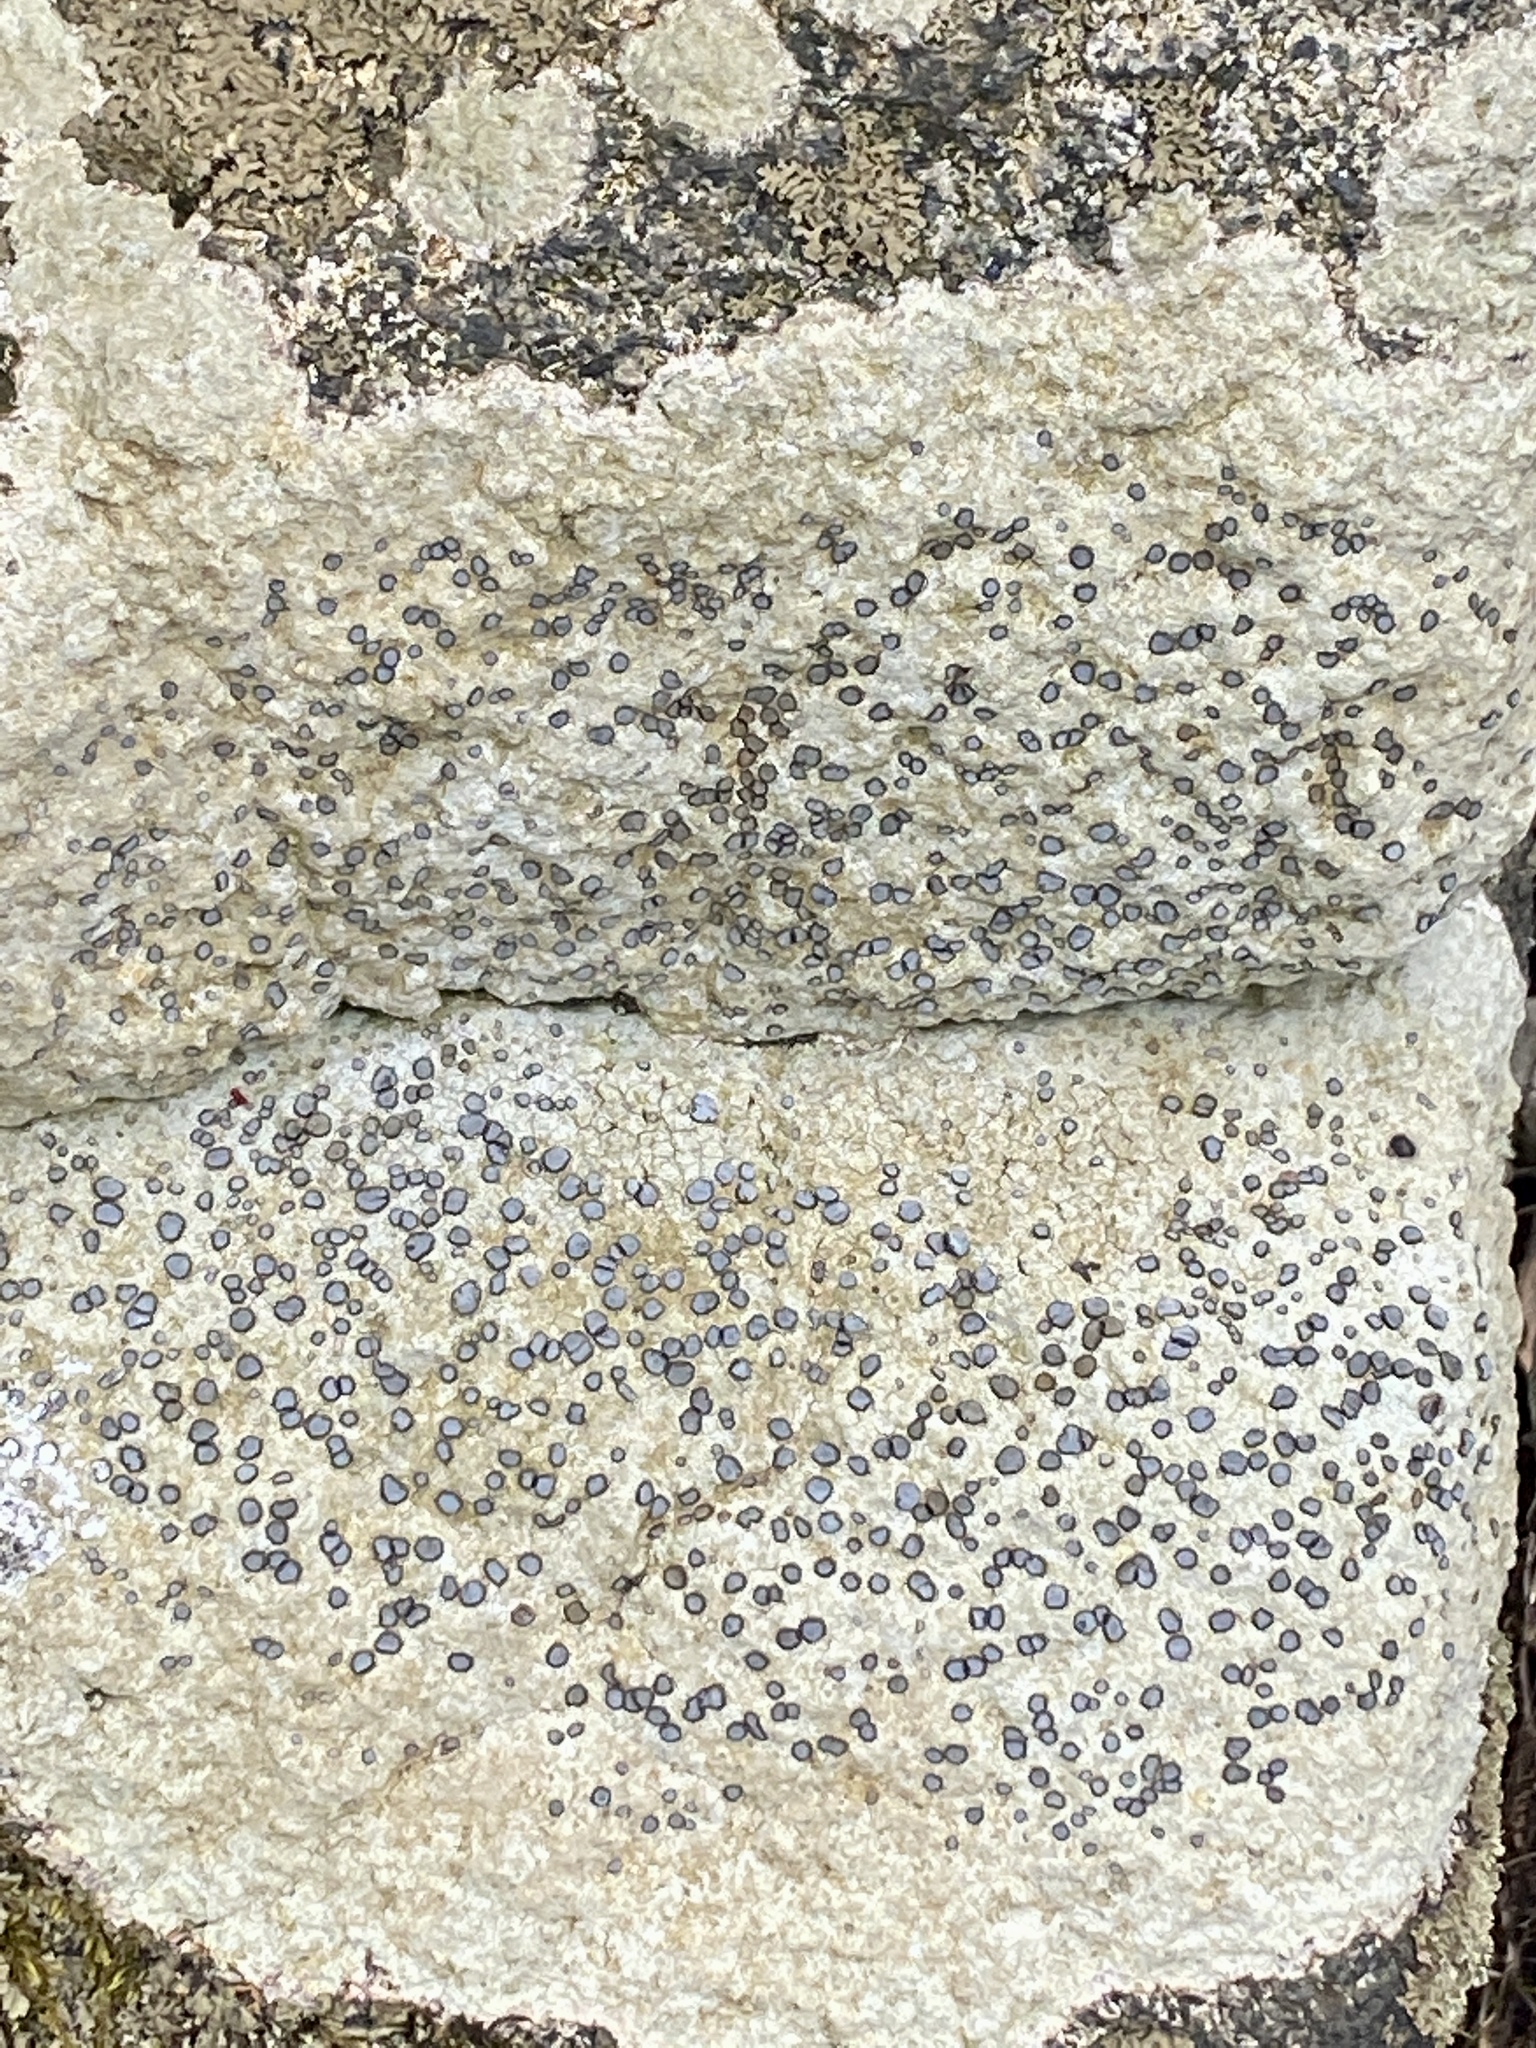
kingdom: Fungi
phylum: Ascomycota
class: Lecanoromycetes
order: Lecideales
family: Lecideaceae
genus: Porpidia
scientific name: Porpidia albocaerulescens
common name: Smokey-eyed boulder lichen
